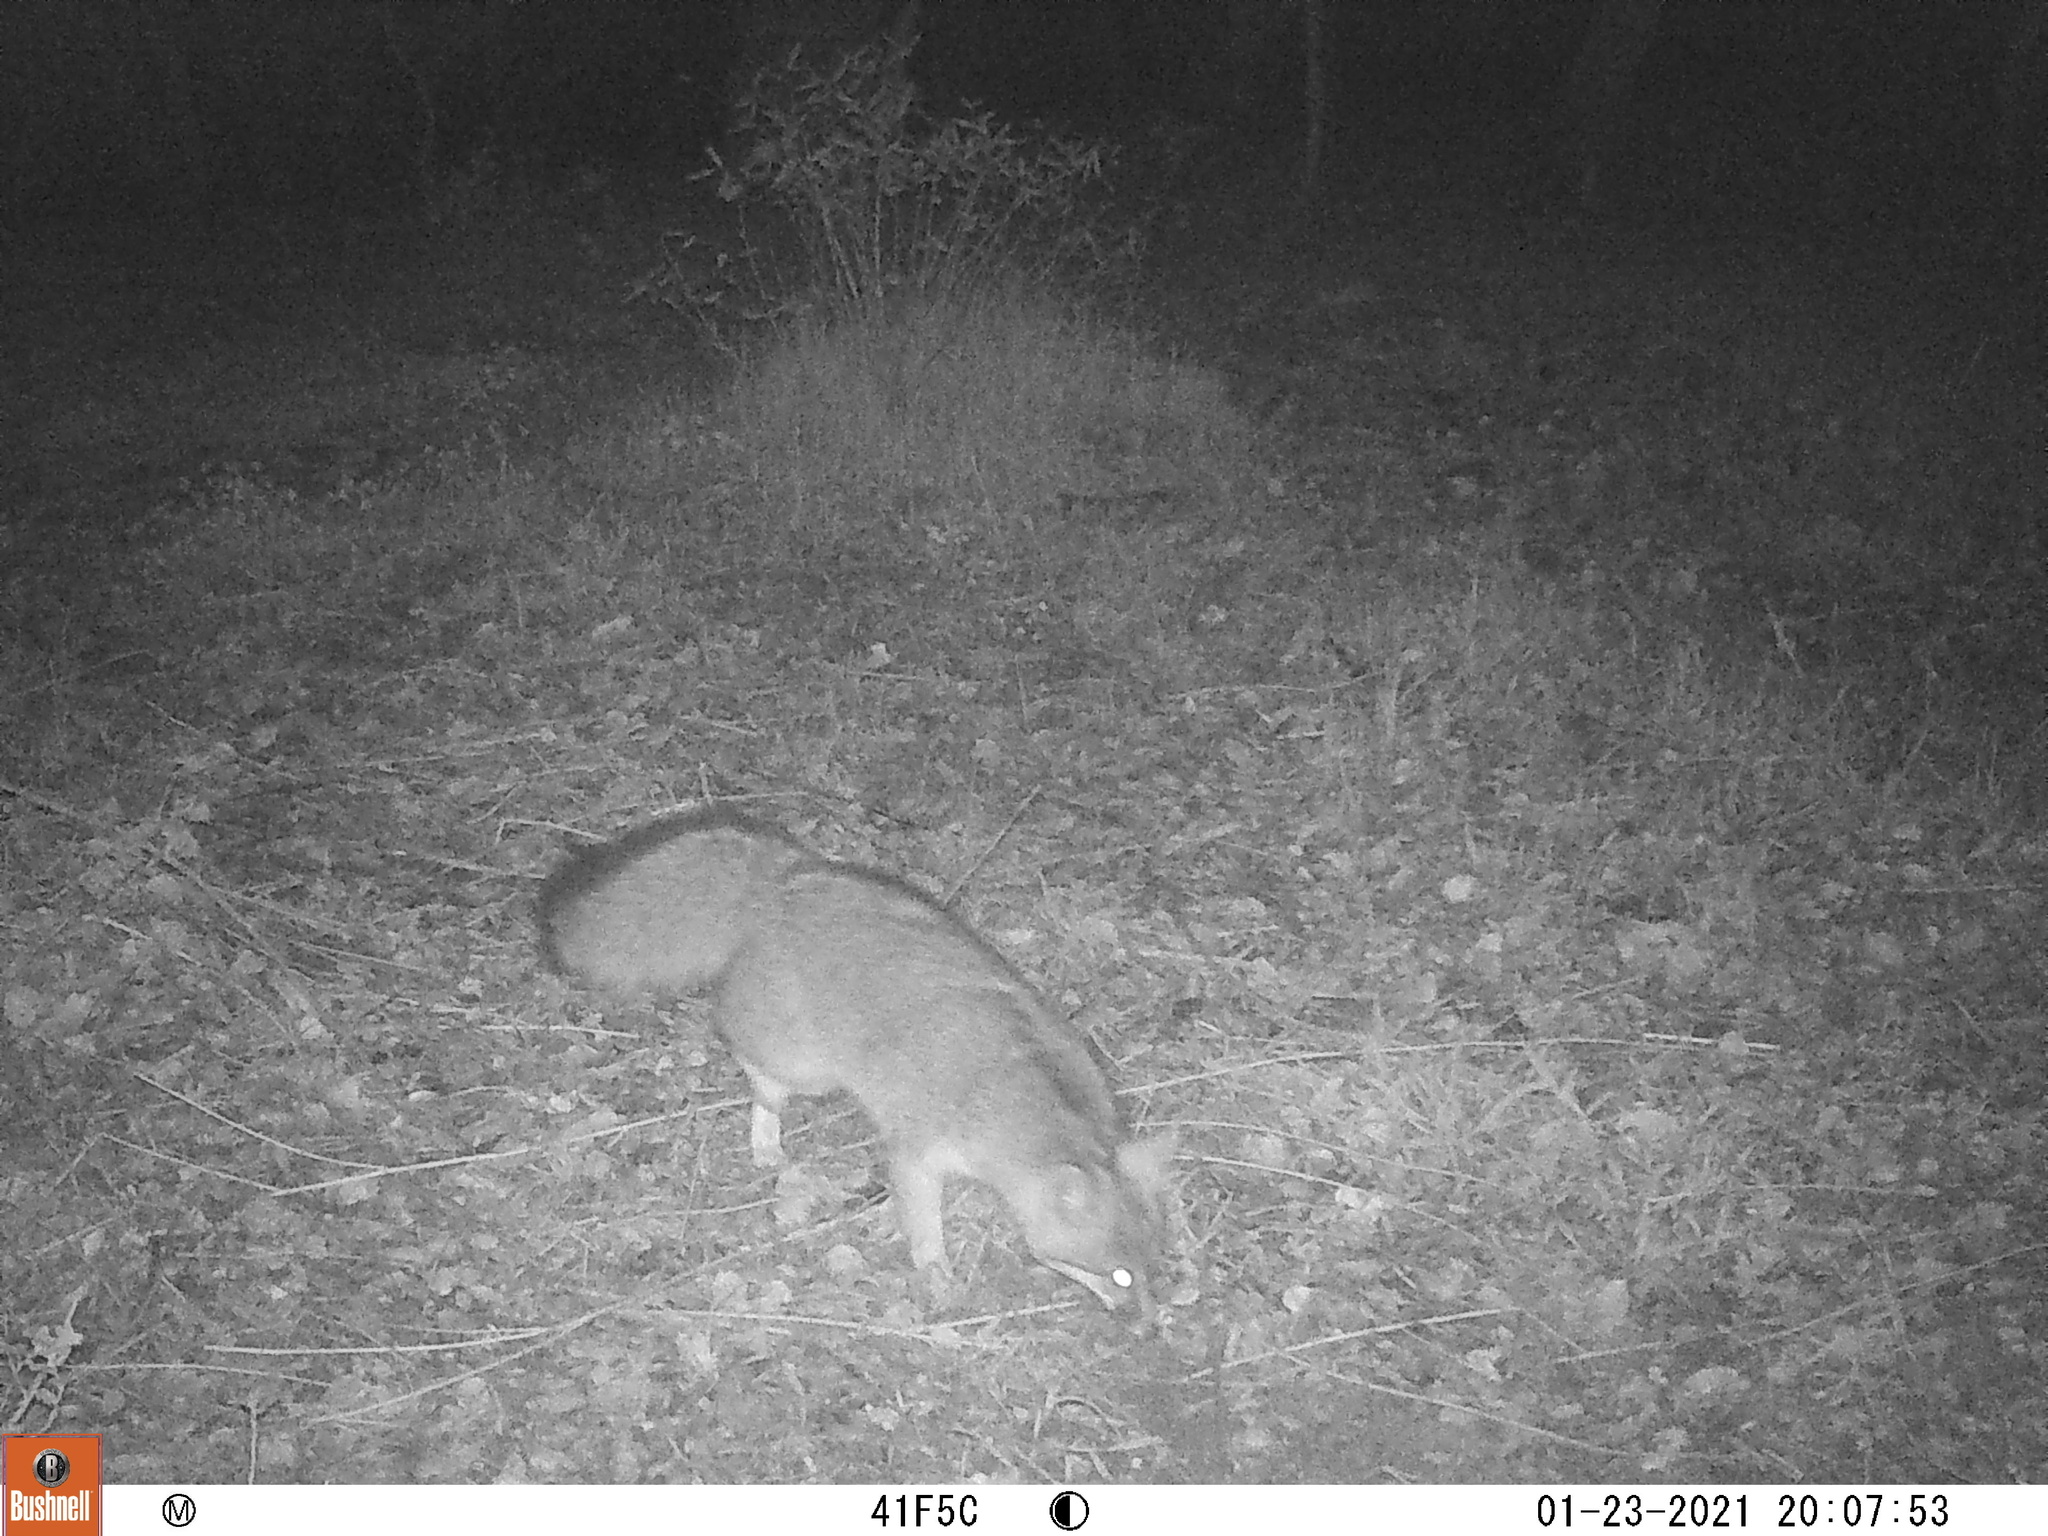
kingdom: Animalia
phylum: Chordata
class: Mammalia
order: Carnivora
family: Canidae
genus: Urocyon
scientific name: Urocyon cinereoargenteus
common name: Gray fox
